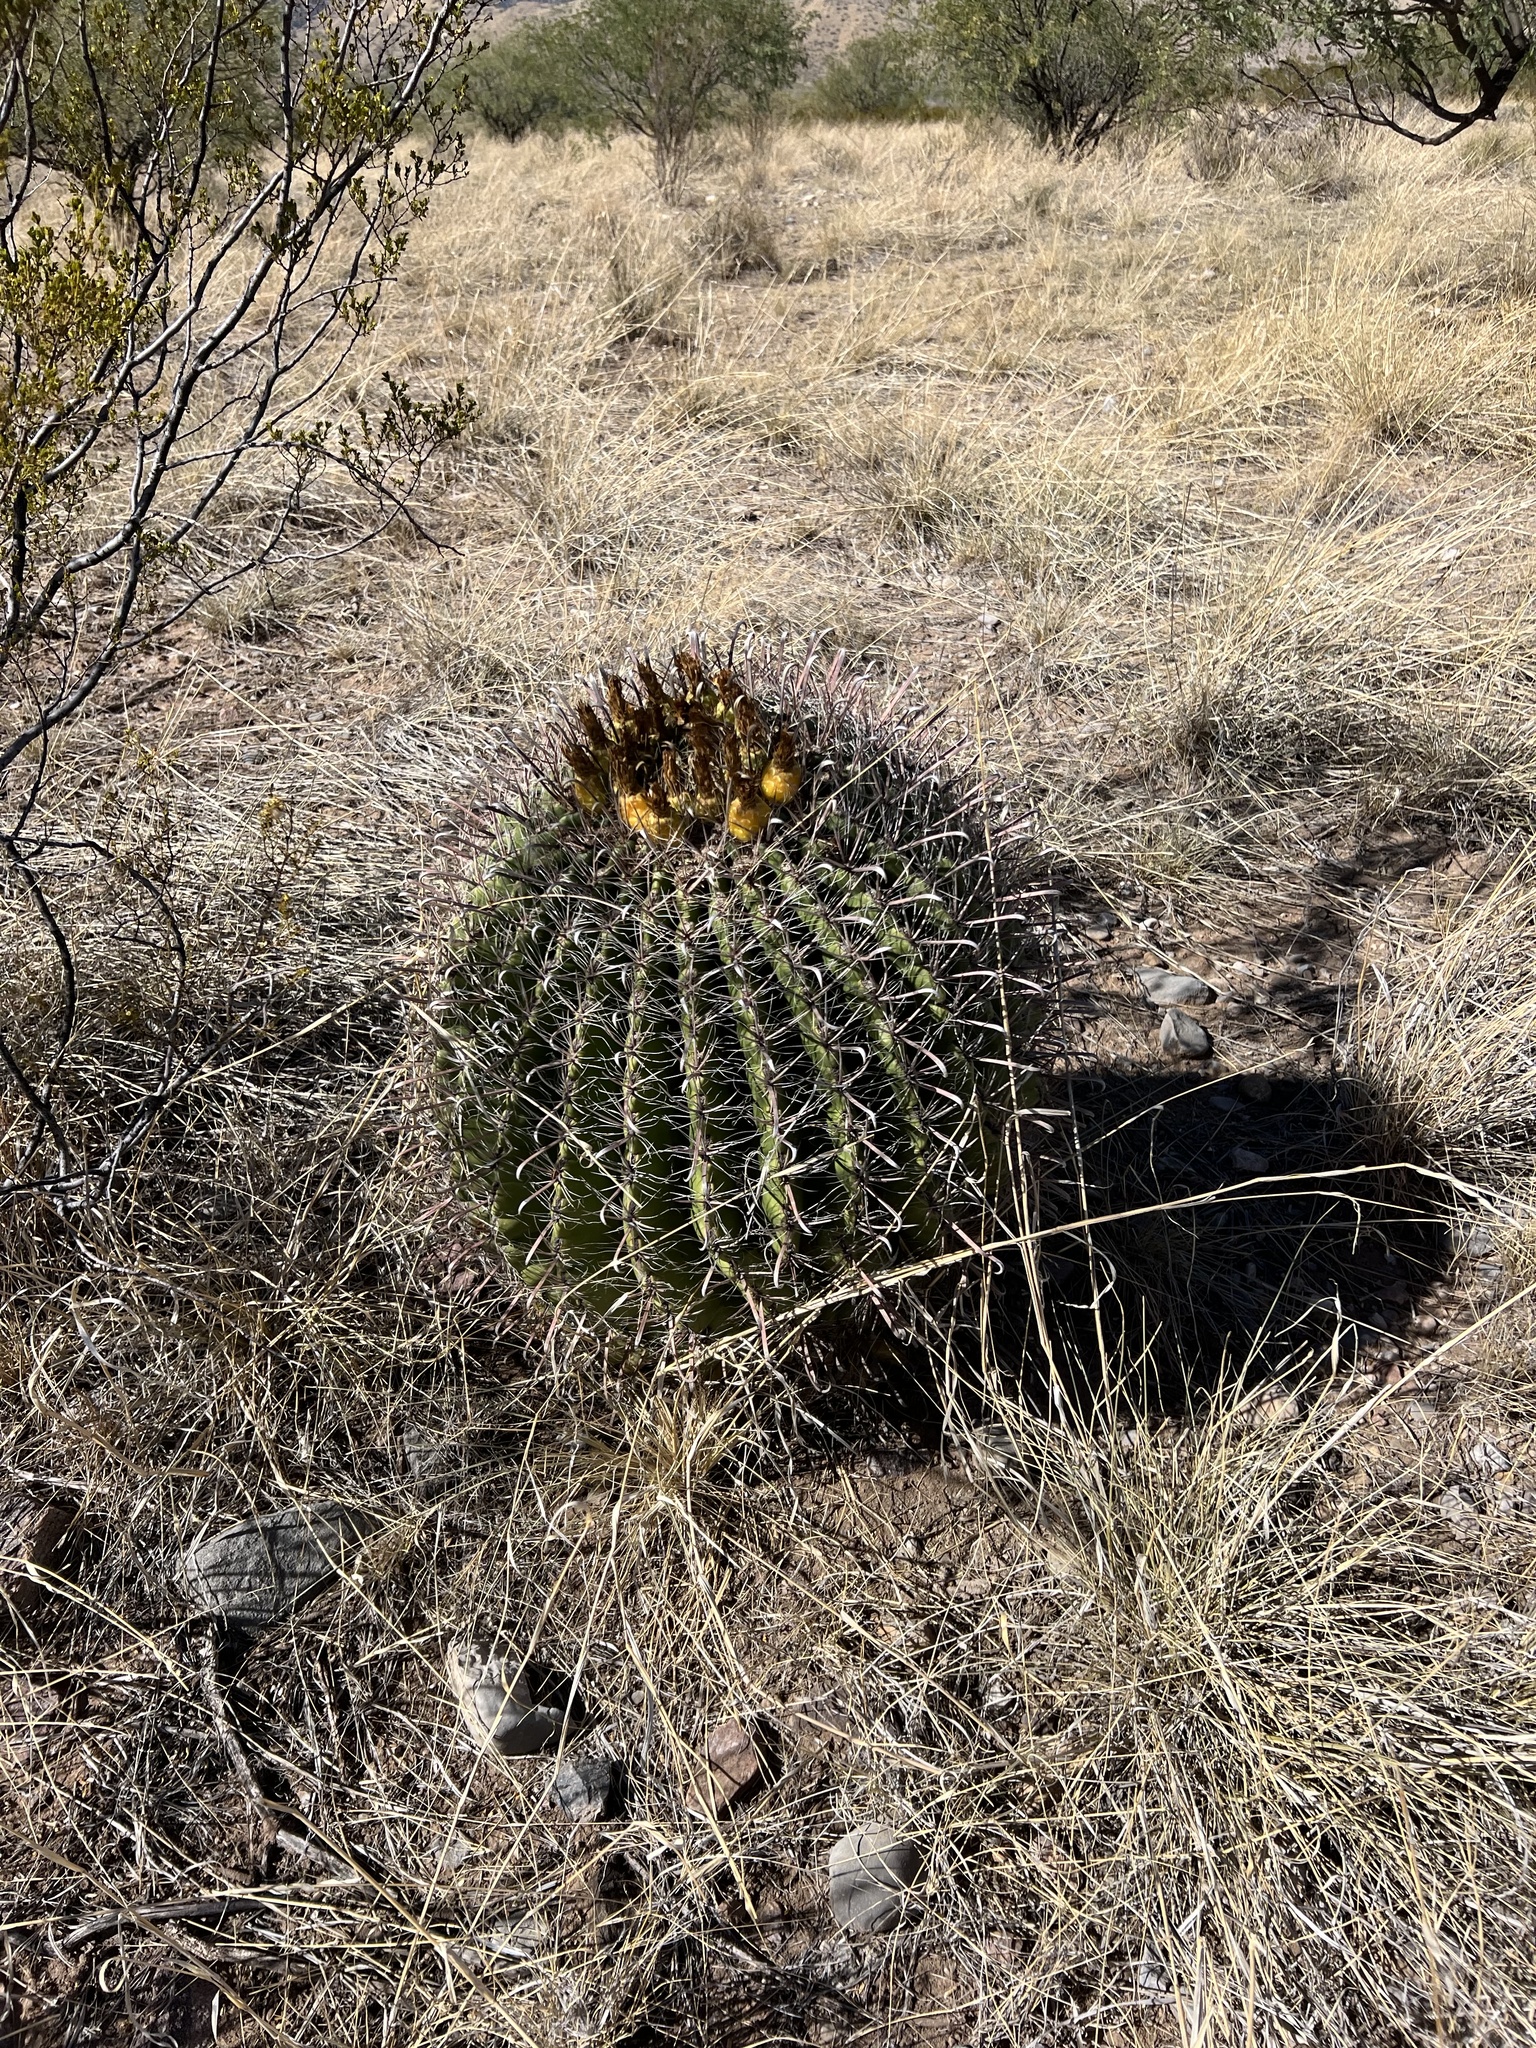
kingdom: Plantae
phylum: Tracheophyta
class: Magnoliopsida
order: Caryophyllales
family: Cactaceae
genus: Ferocactus
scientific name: Ferocactus wislizeni
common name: Candy barrel cactus
